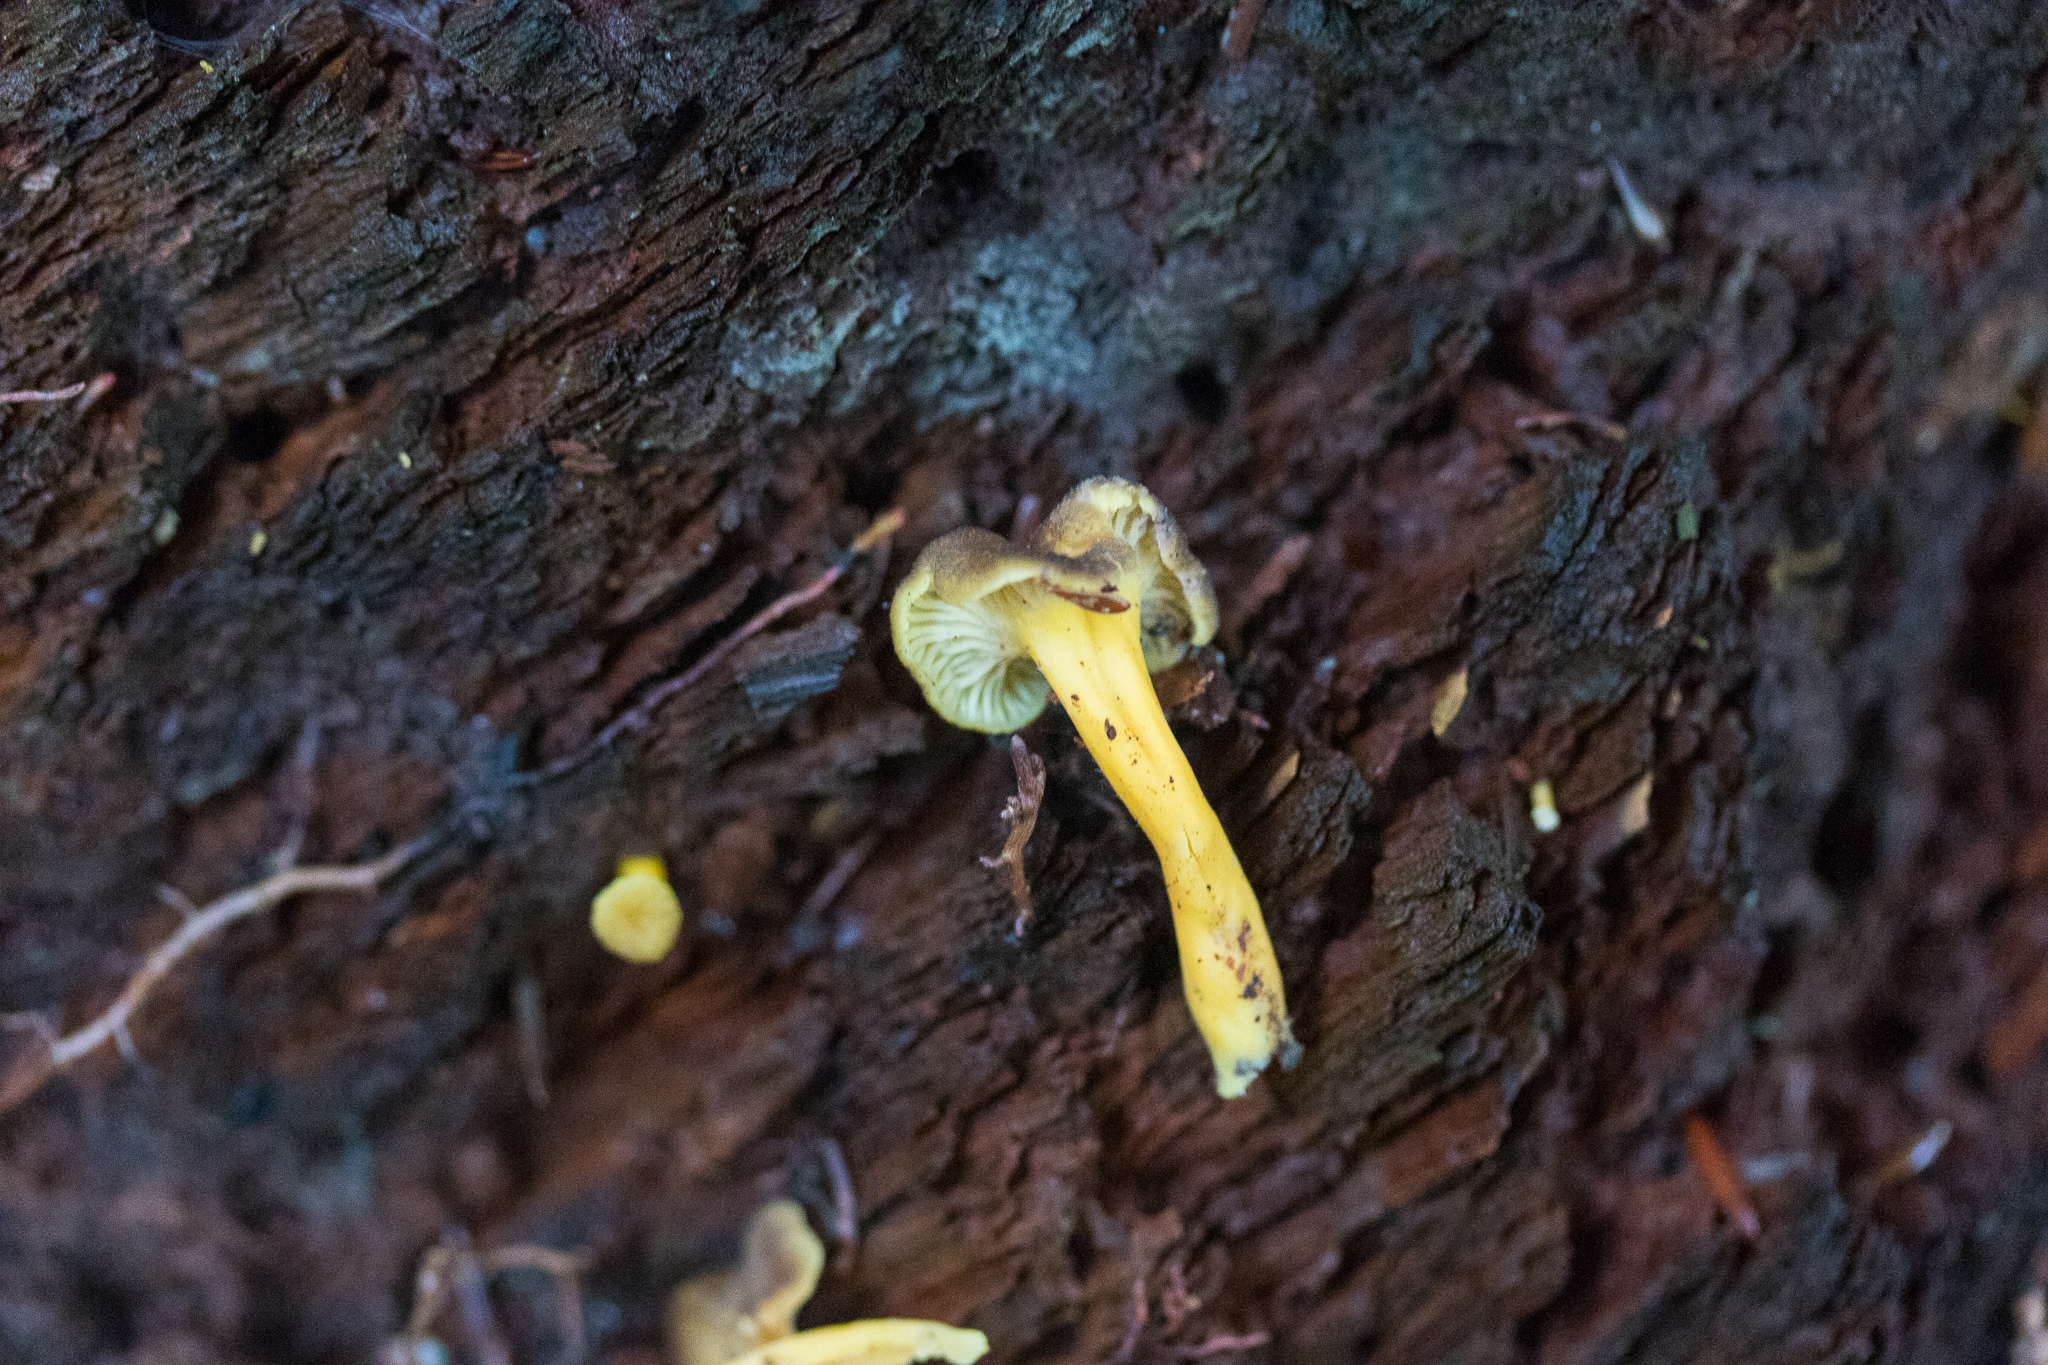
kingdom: Fungi
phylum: Basidiomycota
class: Agaricomycetes
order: Cantharellales
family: Hydnaceae
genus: Craterellus
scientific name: Craterellus tubaeformis
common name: Yellowfoot
